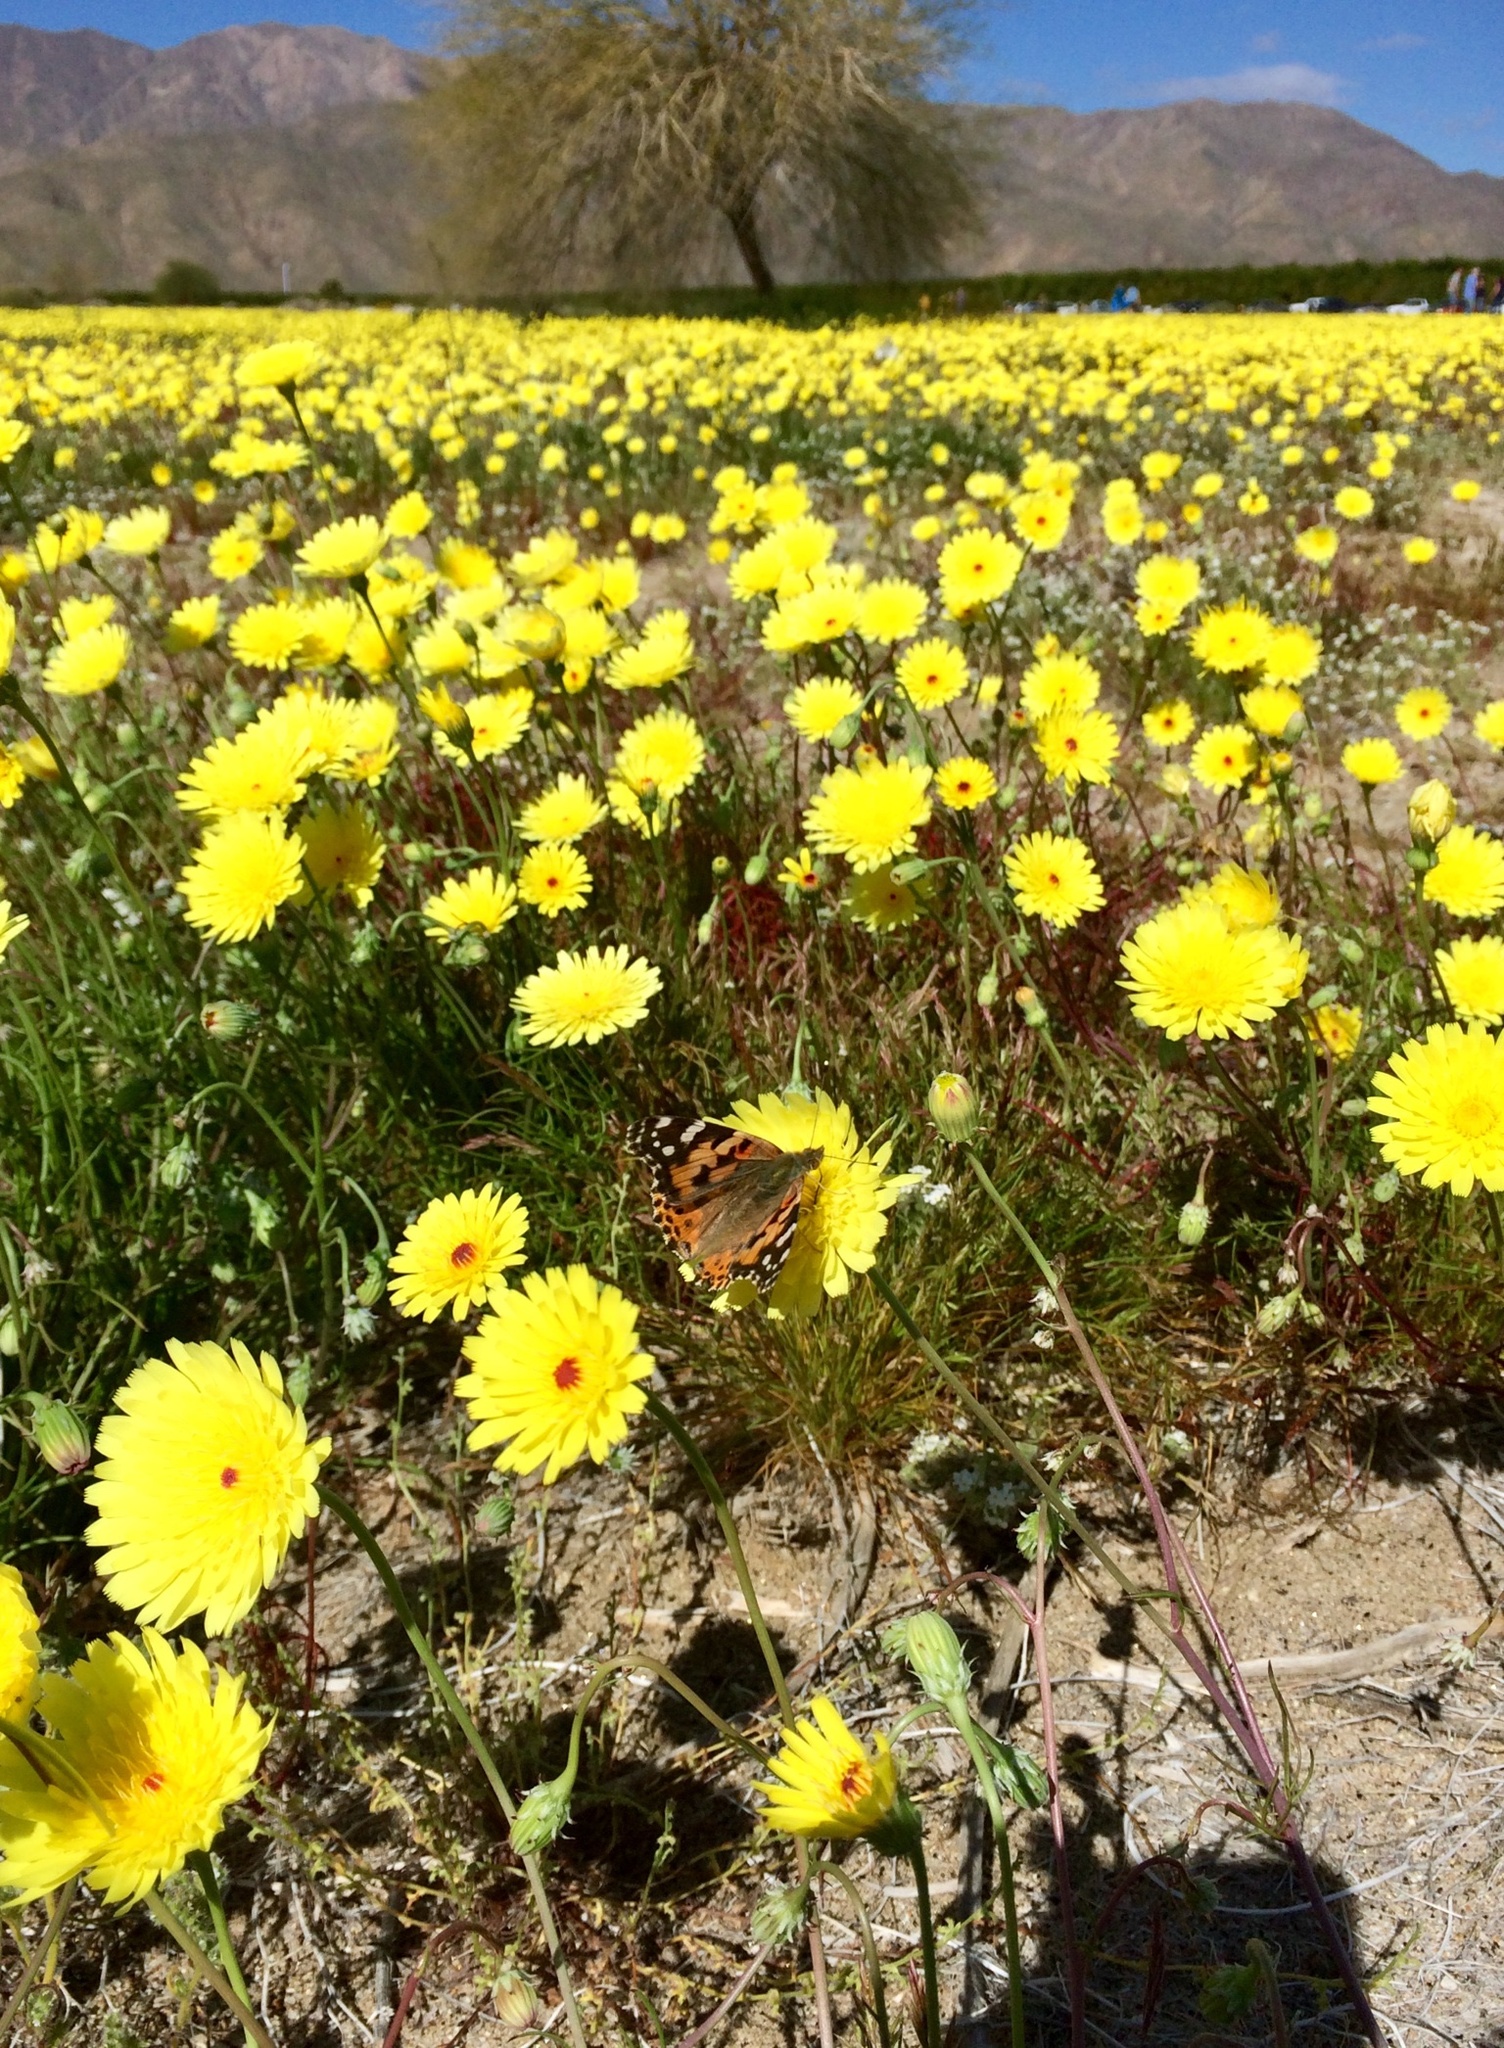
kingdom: Plantae
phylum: Tracheophyta
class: Magnoliopsida
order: Asterales
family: Asteraceae
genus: Malacothrix
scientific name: Malacothrix glabrata
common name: Smooth desert-dandelion
